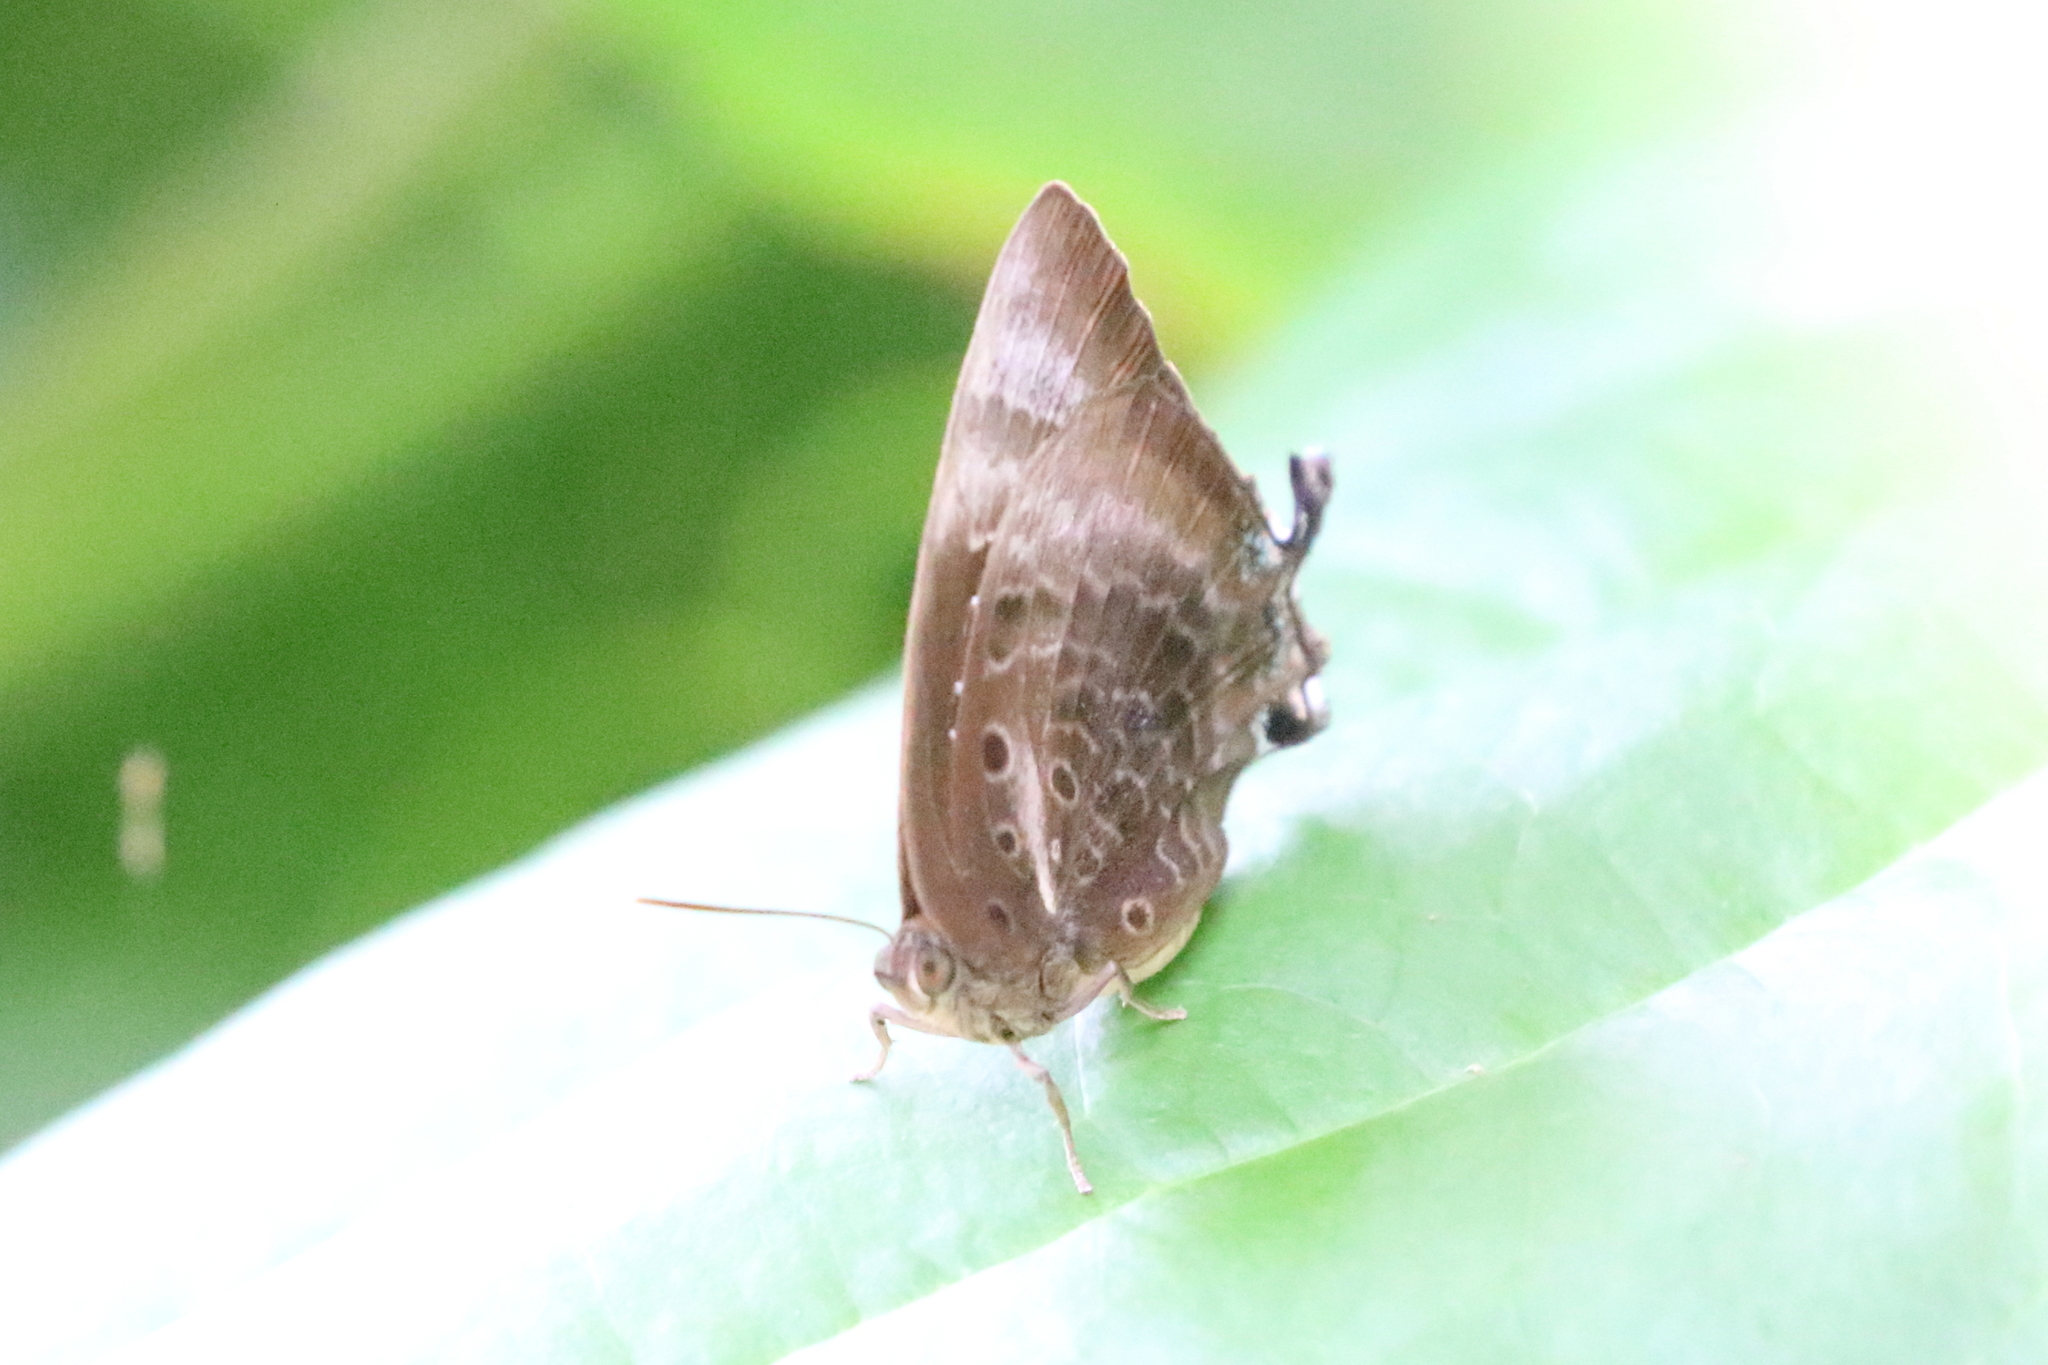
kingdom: Animalia
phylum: Arthropoda
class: Insecta
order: Lepidoptera
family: Lycaenidae
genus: Arhopala
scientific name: Arhopala micale
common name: Shining oak-blue
